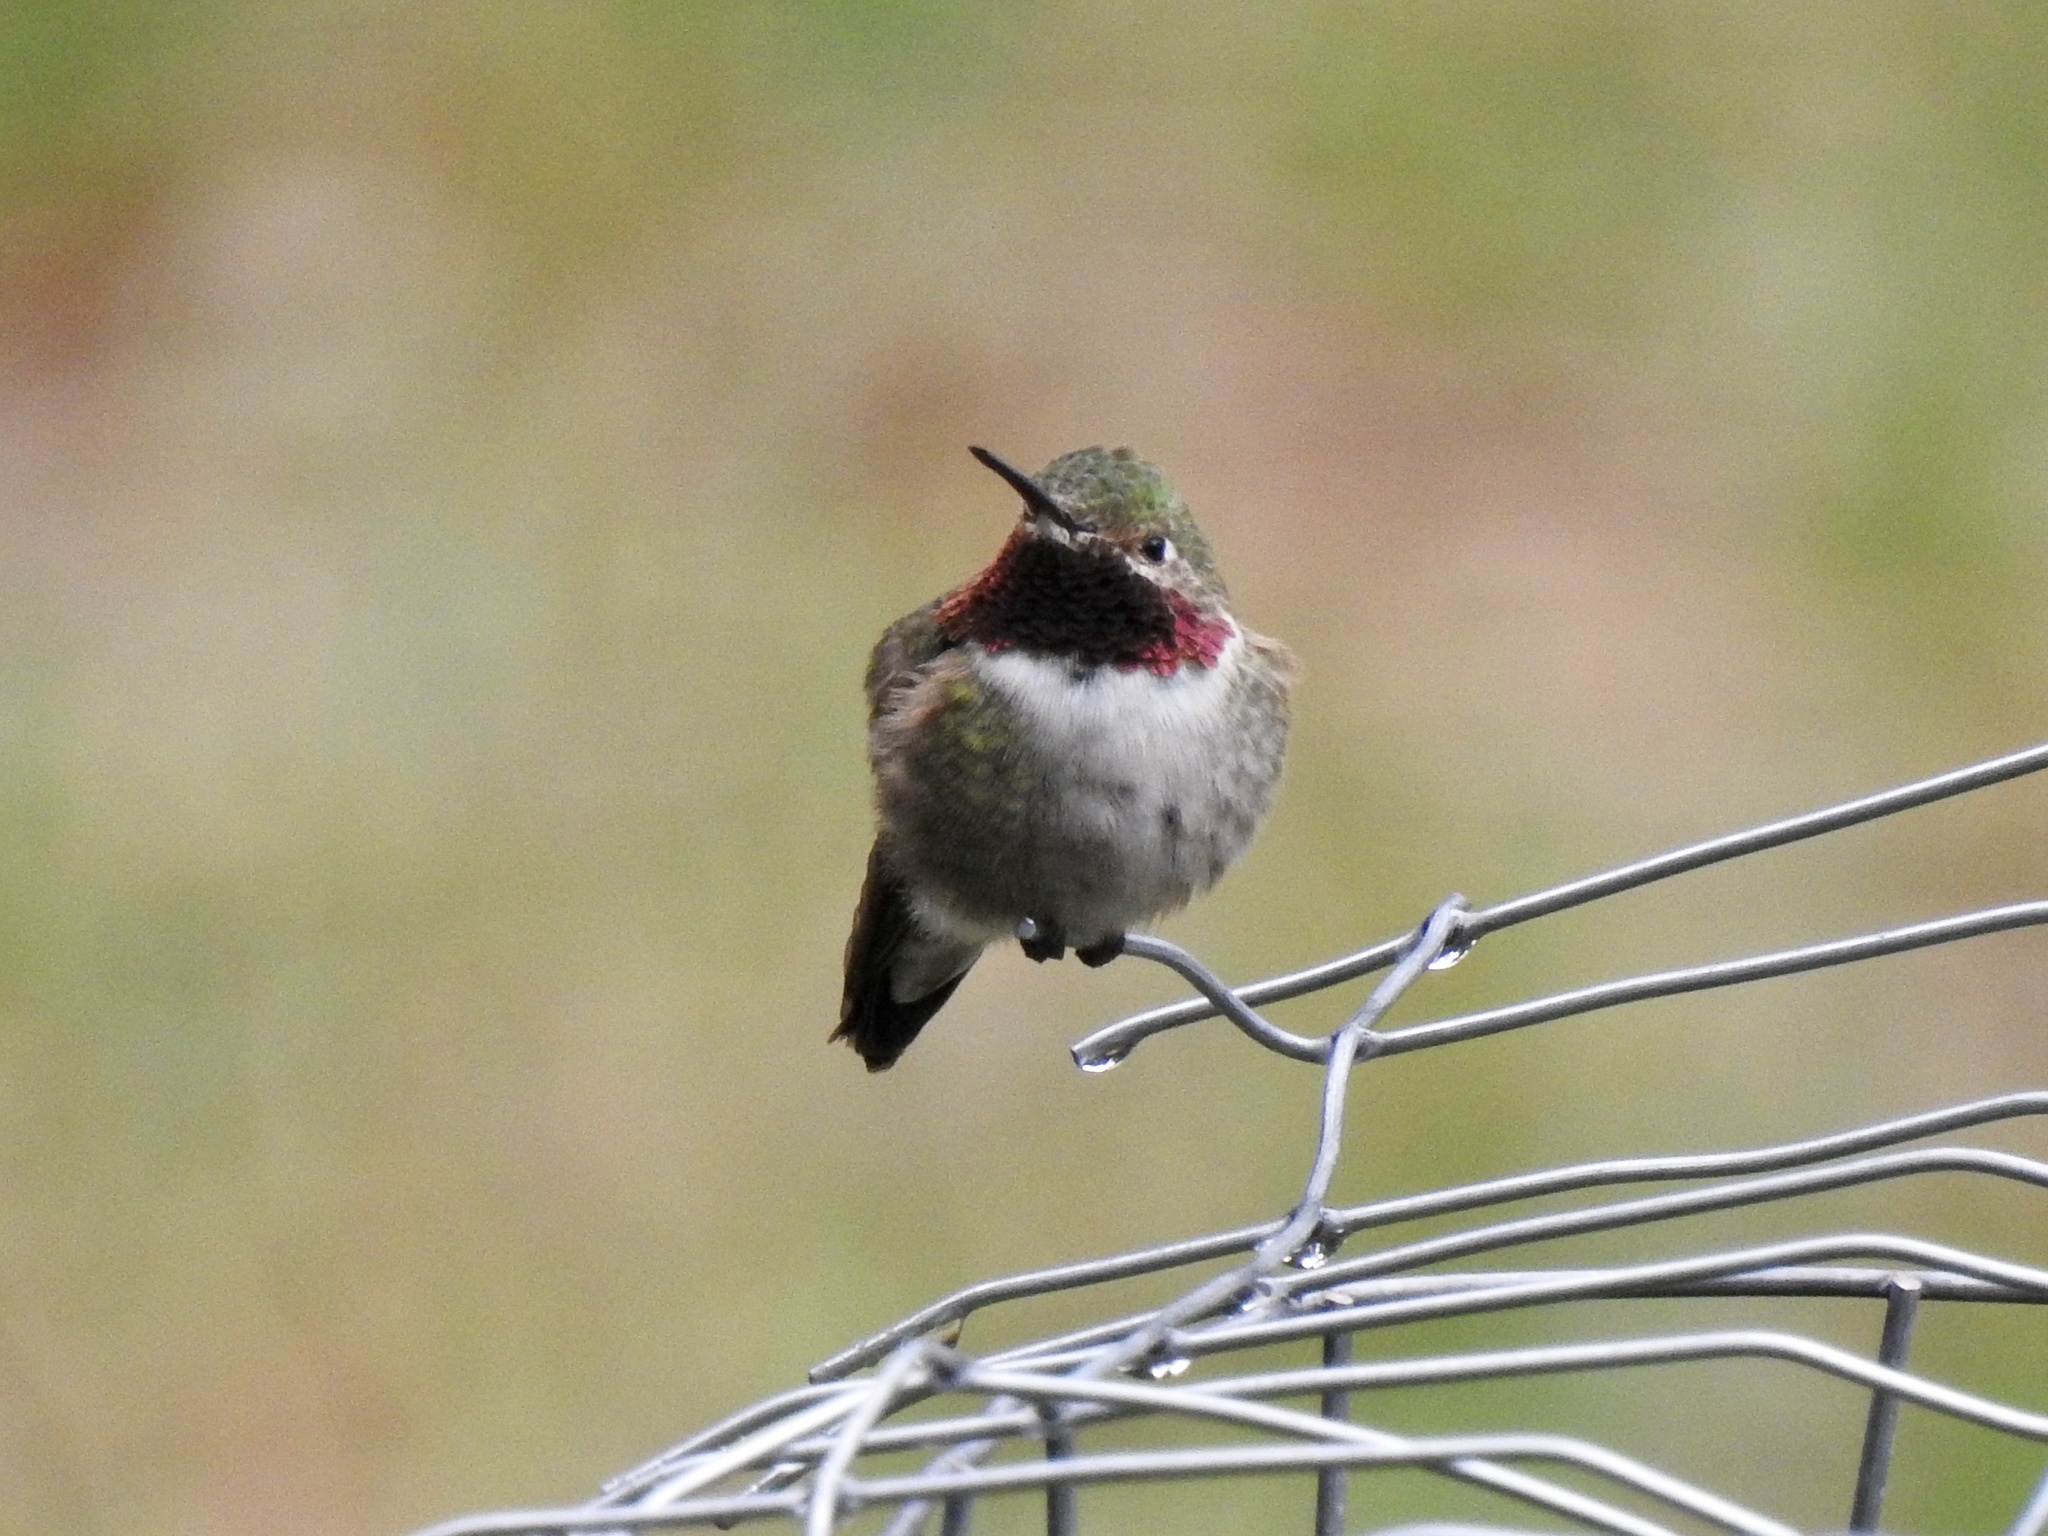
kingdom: Animalia
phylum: Chordata
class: Aves
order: Apodiformes
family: Trochilidae
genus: Selasphorus
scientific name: Selasphorus platycercus
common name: Broad-tailed hummingbird
